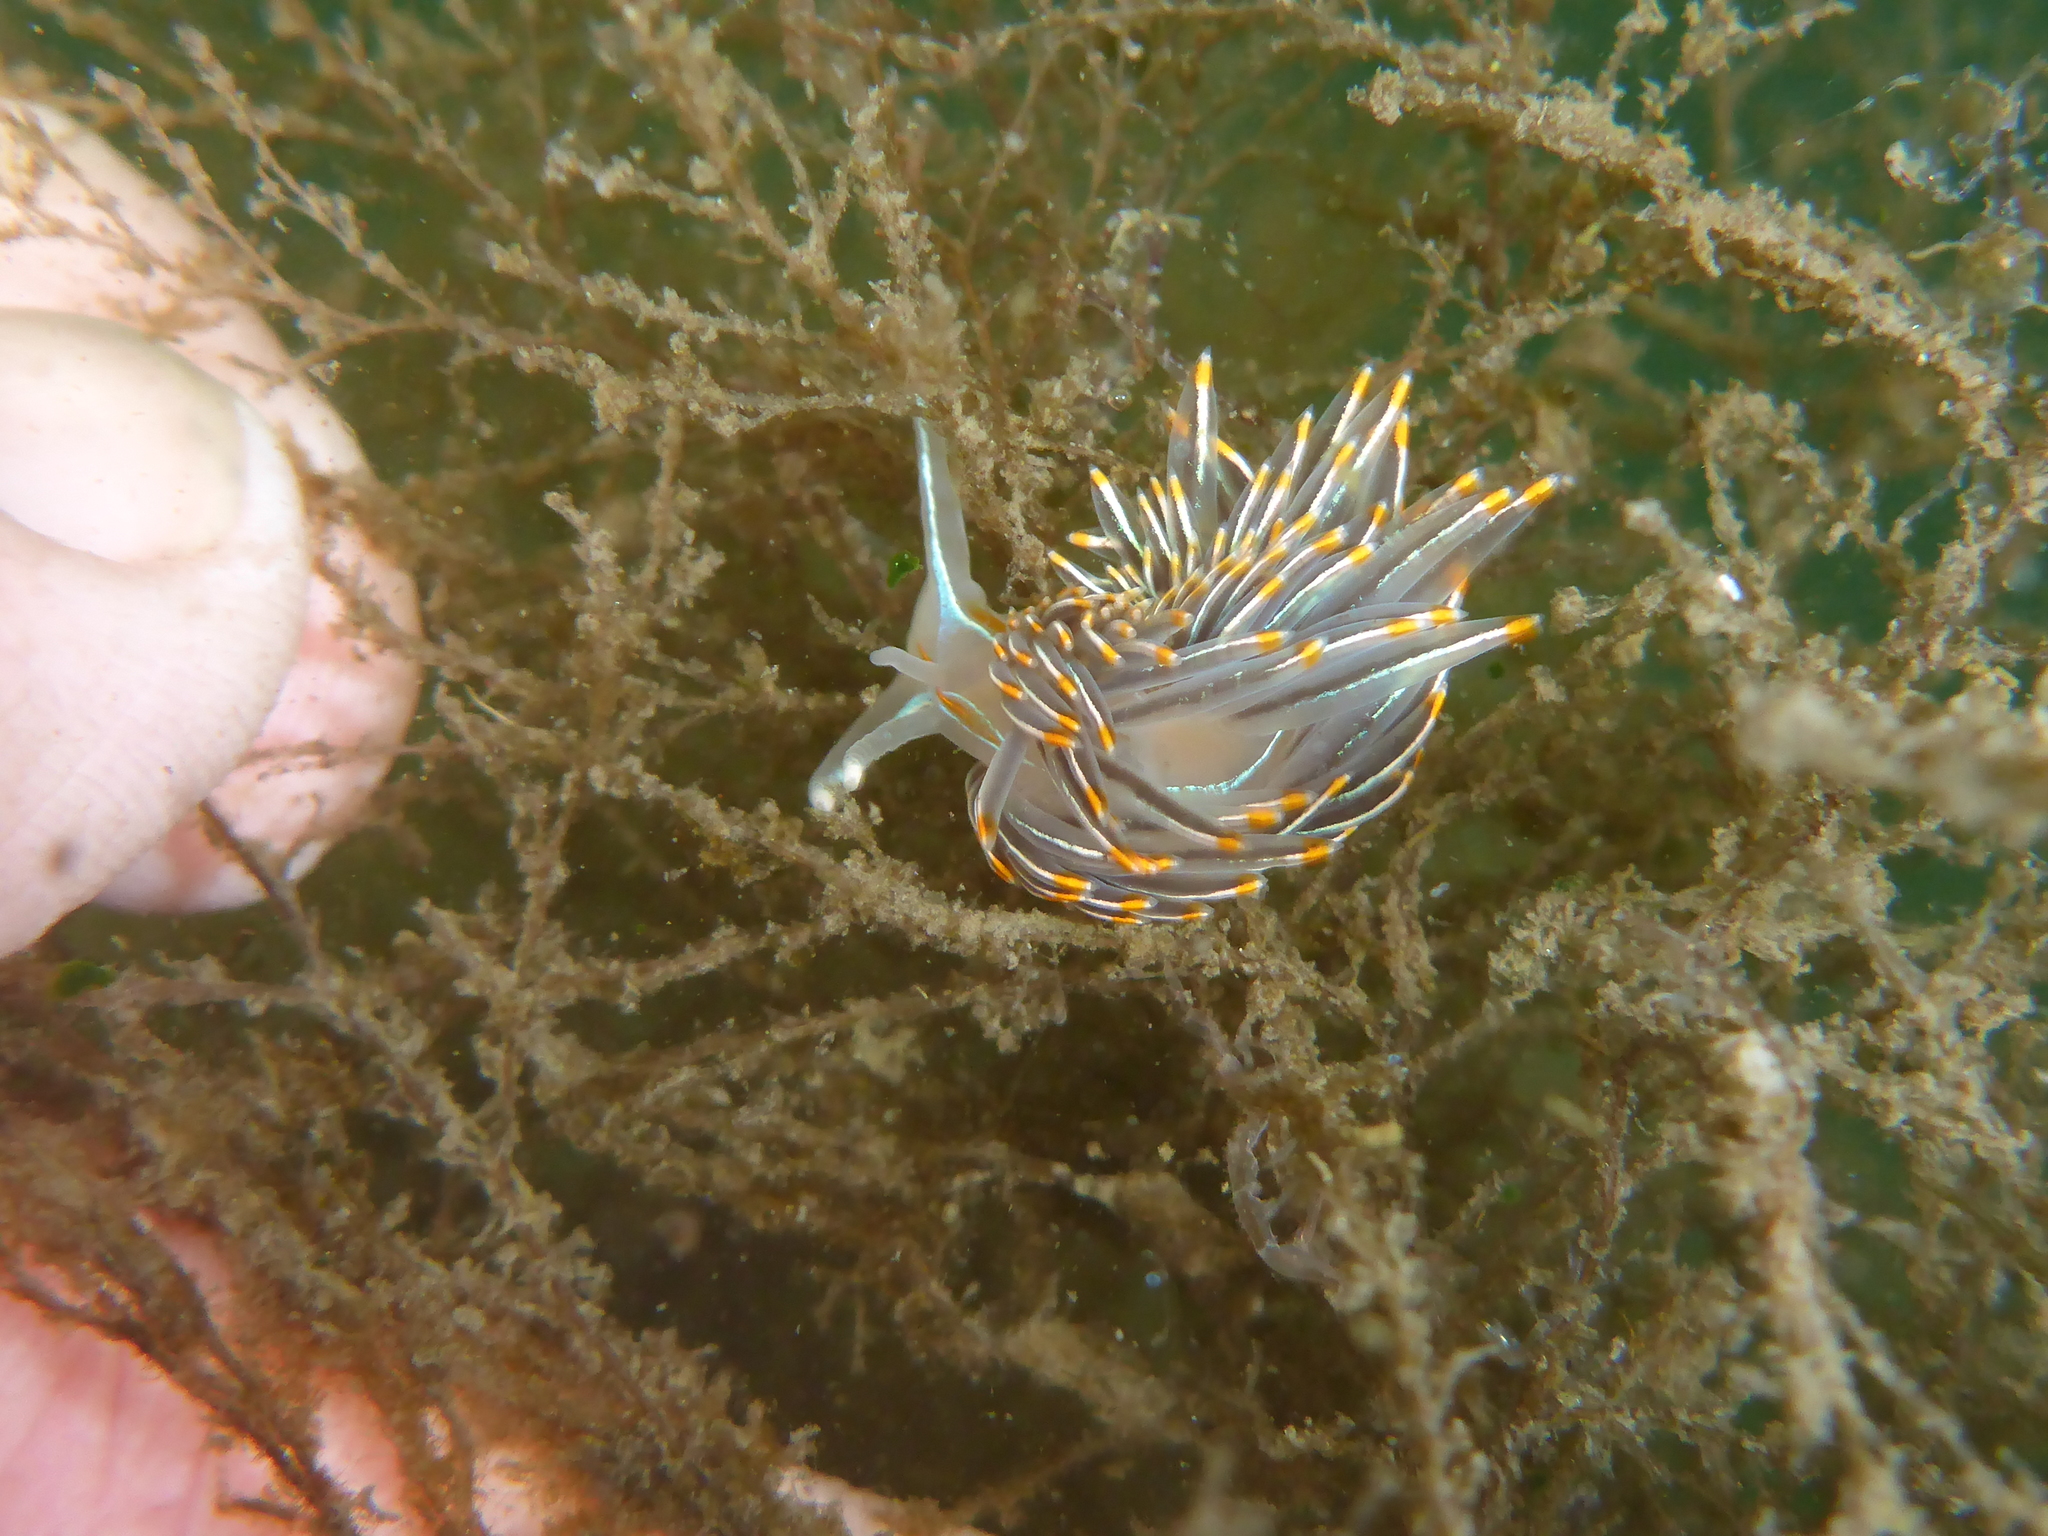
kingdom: Animalia
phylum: Mollusca
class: Gastropoda
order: Nudibranchia
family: Myrrhinidae
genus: Hermissenda
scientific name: Hermissenda crassicornis
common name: Hermissenda
